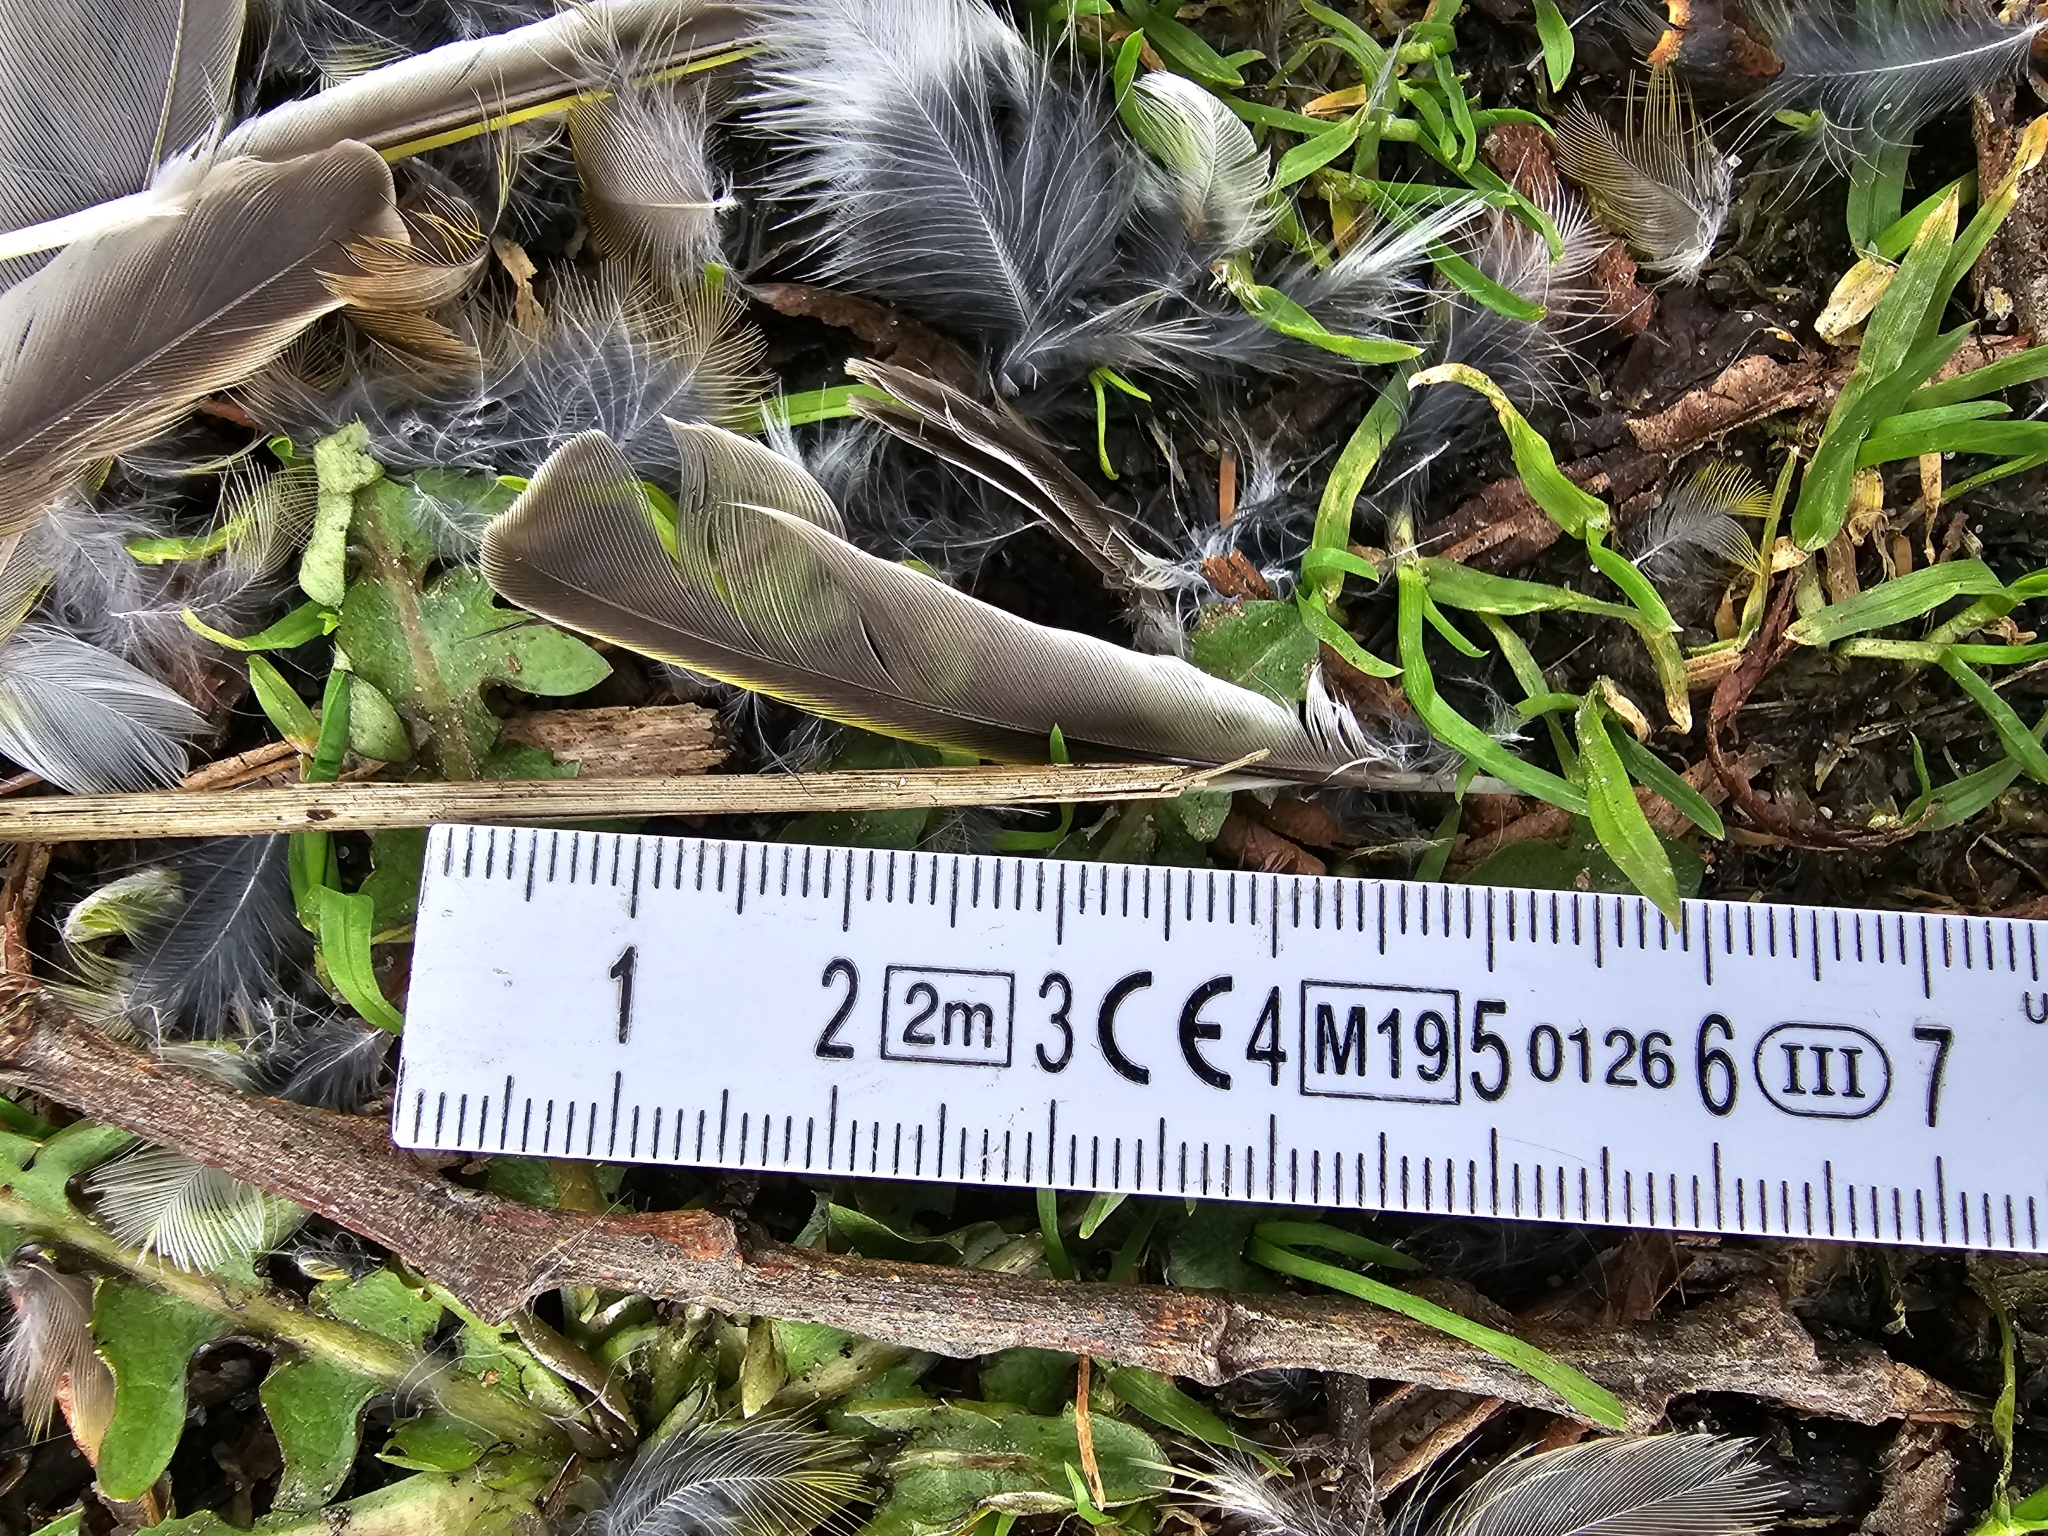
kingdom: Plantae
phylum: Tracheophyta
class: Liliopsida
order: Poales
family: Poaceae
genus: Chloris
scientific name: Chloris chloris
